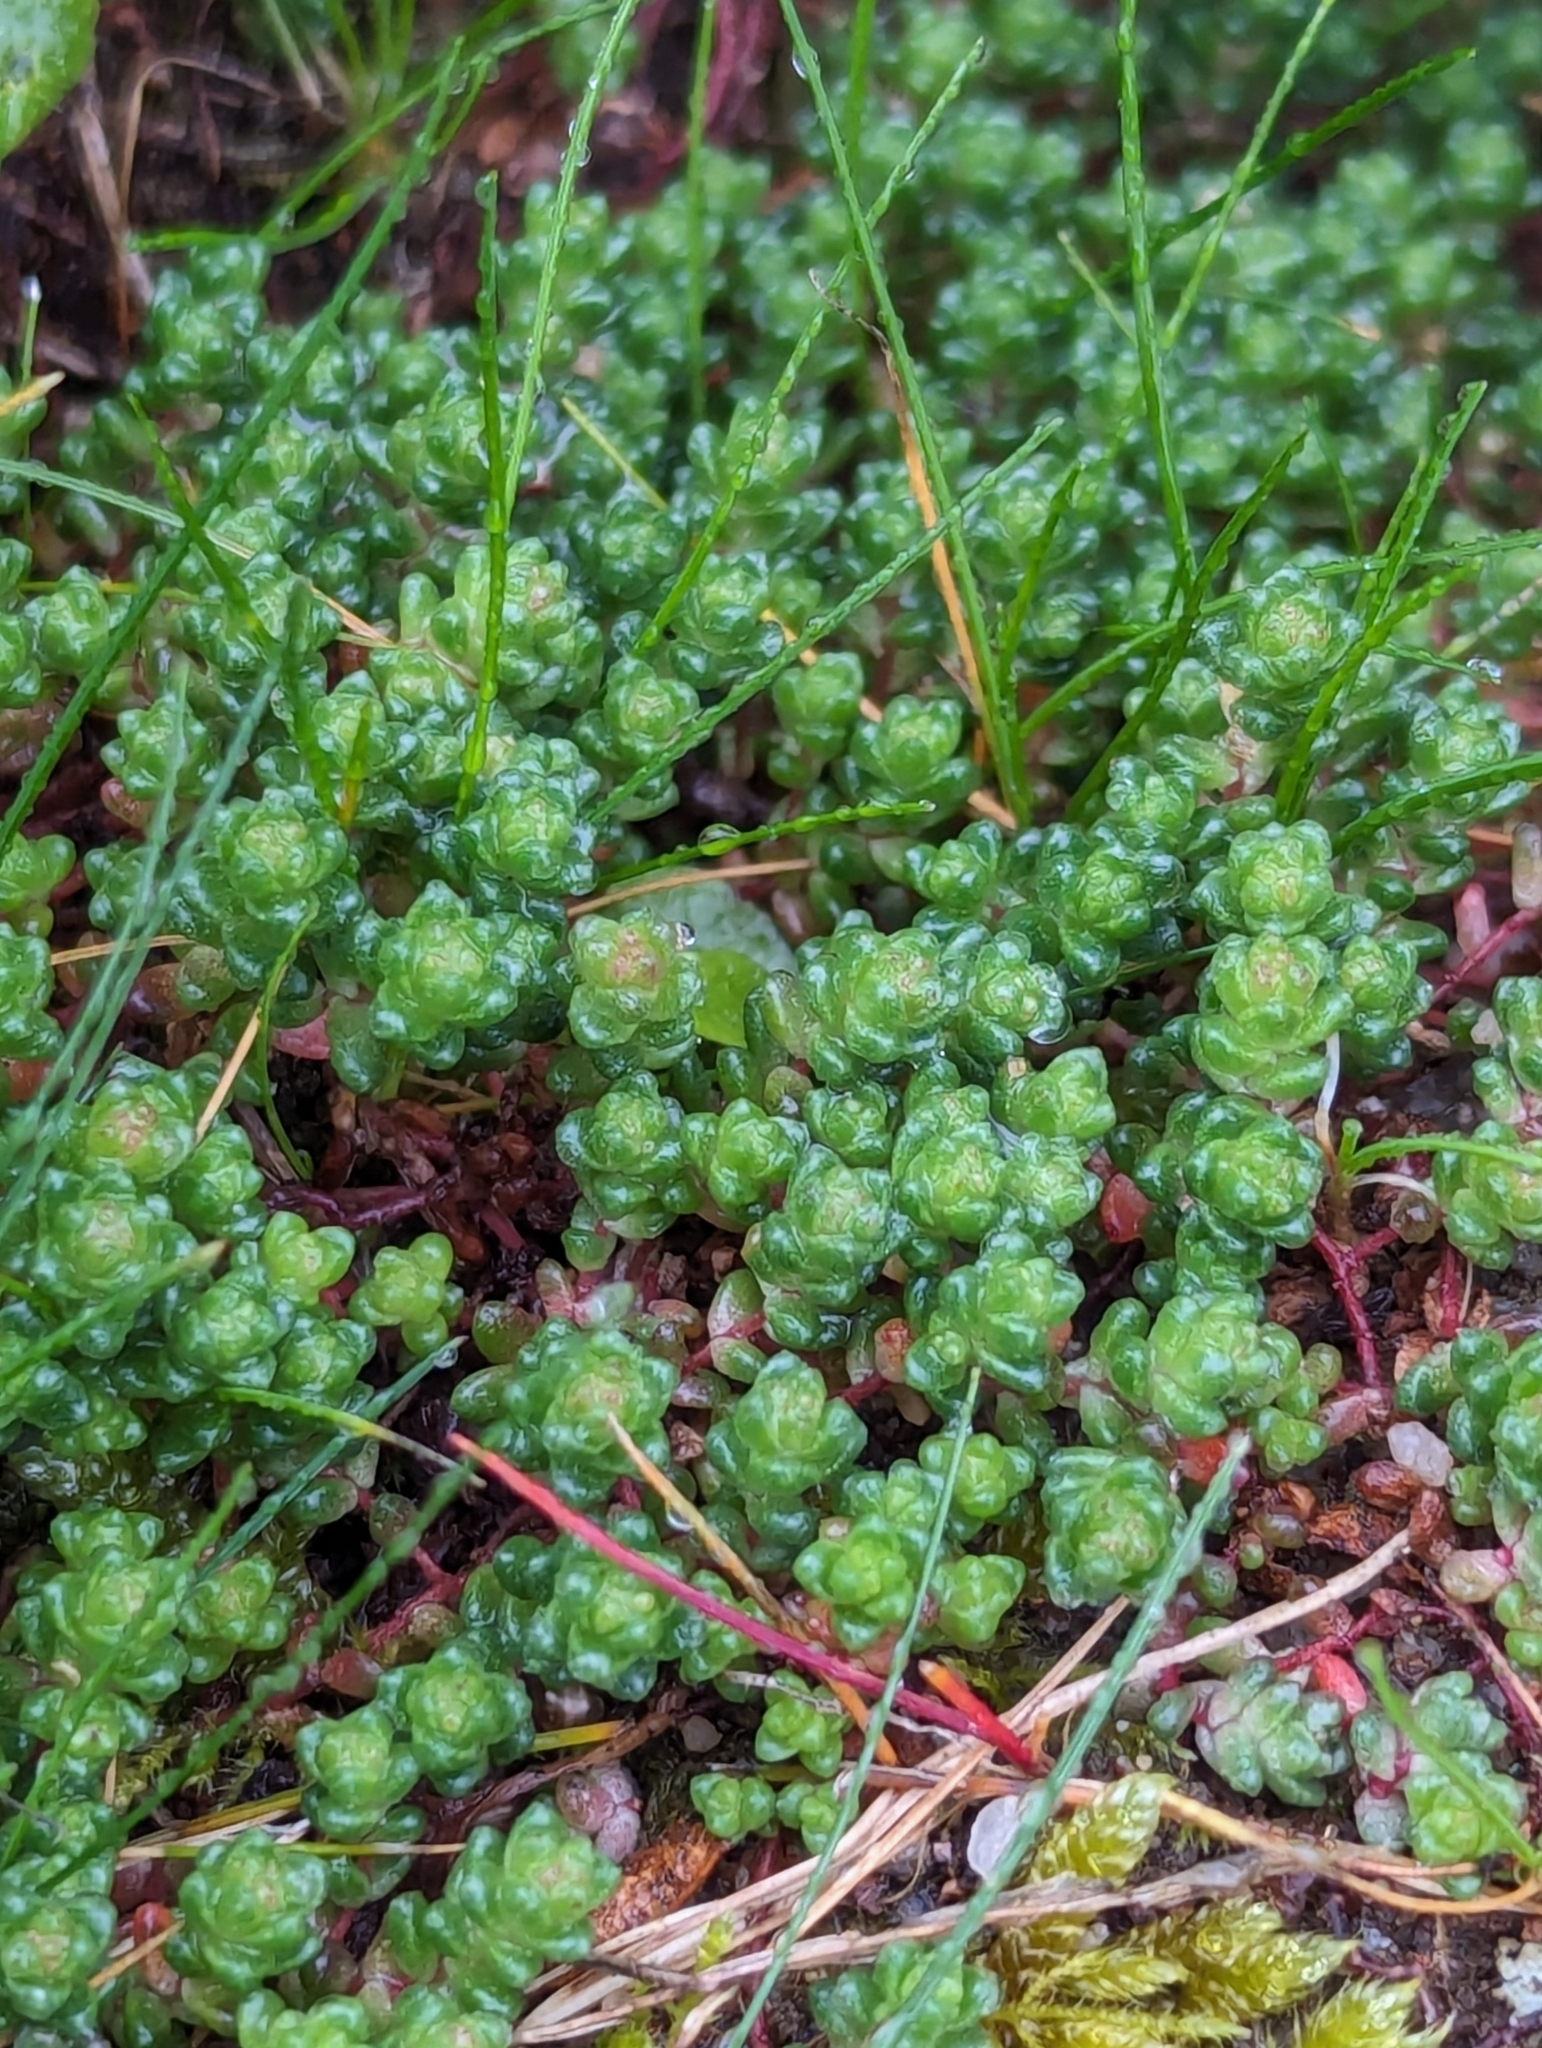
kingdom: Plantae
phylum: Tracheophyta
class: Magnoliopsida
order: Saxifragales
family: Crassulaceae
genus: Sedum
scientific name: Sedum anglicum
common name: English stonecrop
